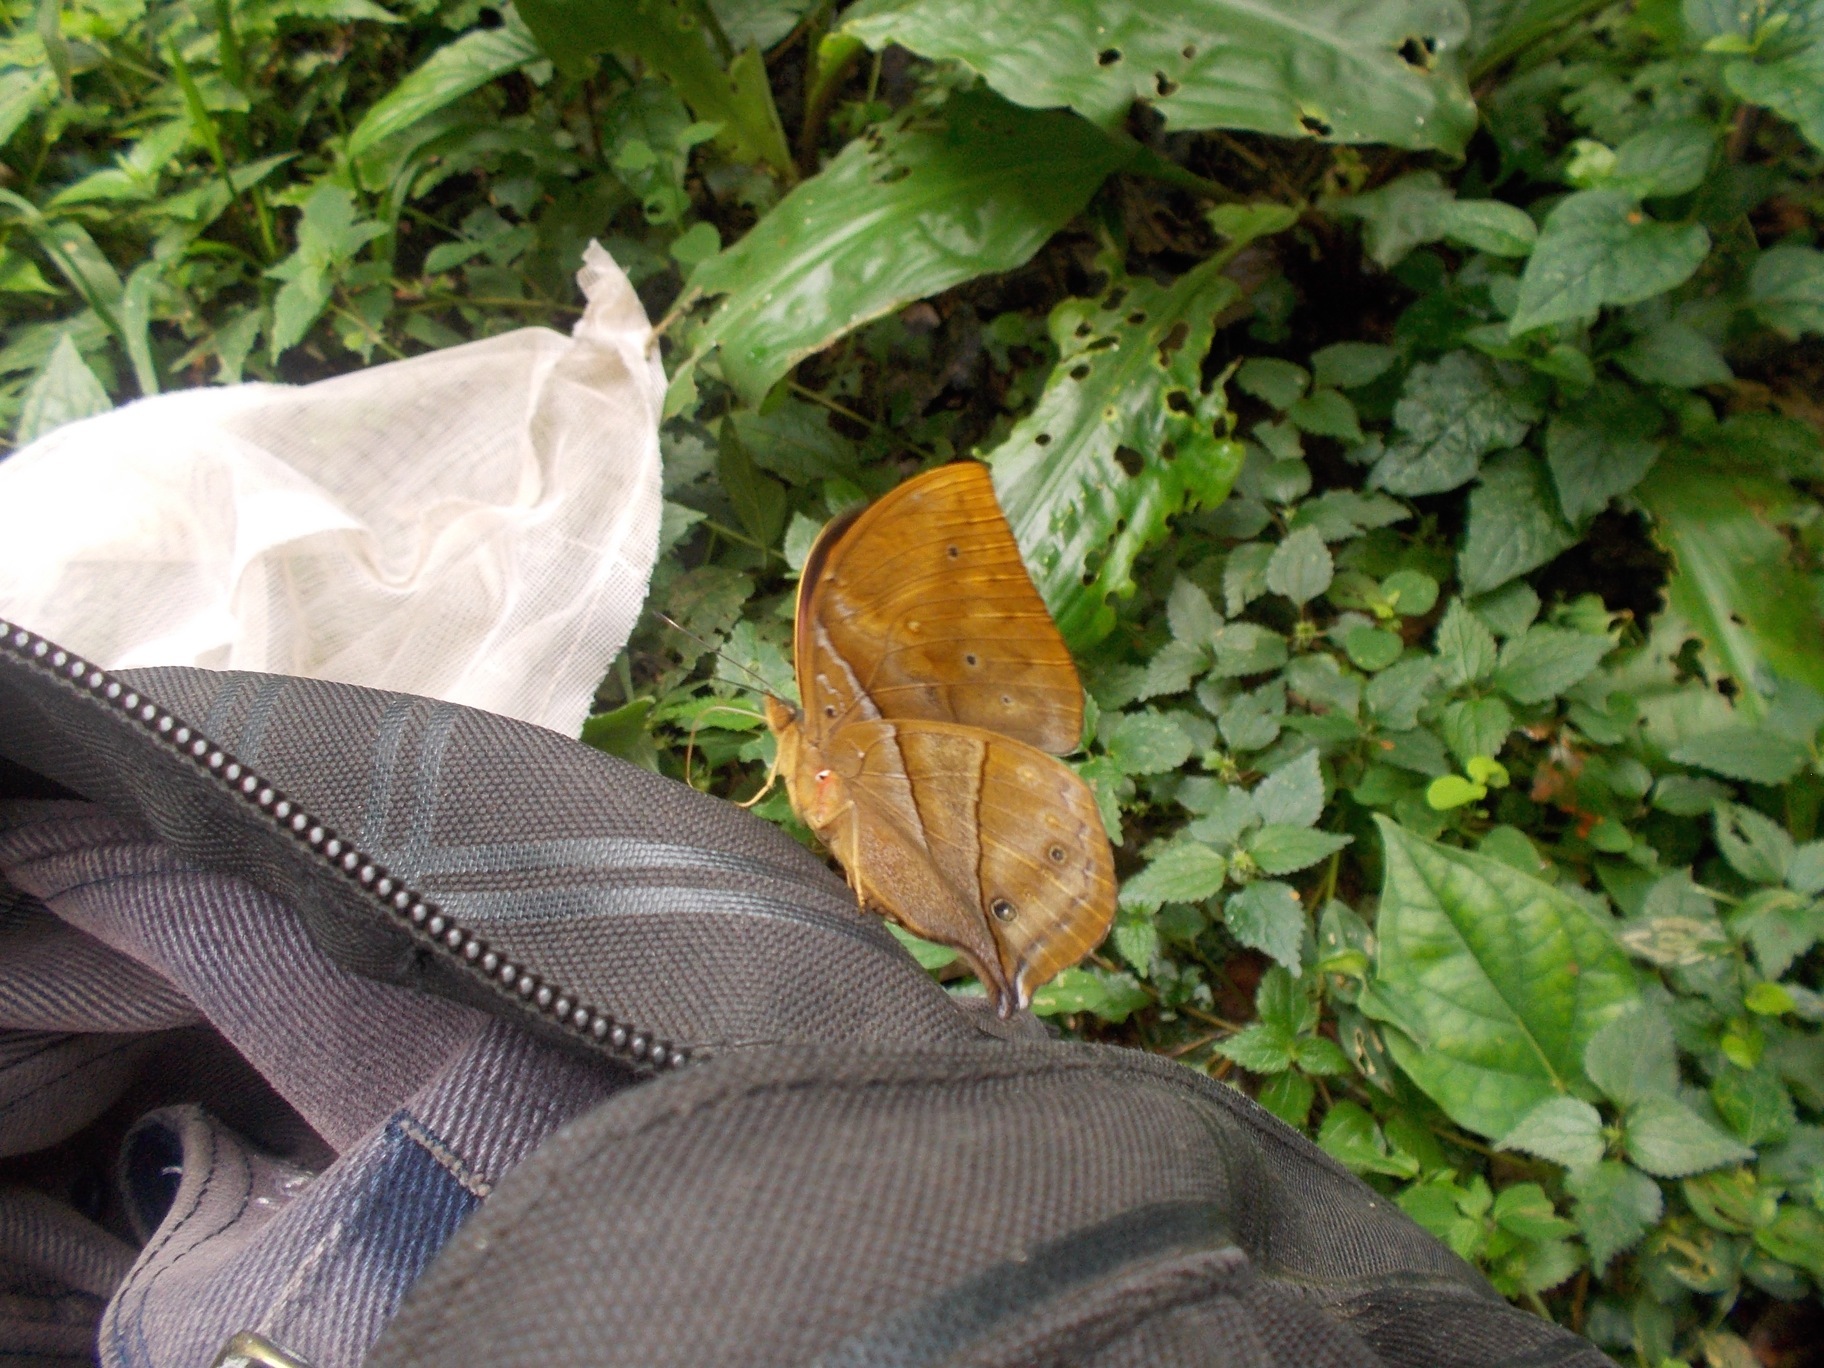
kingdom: Animalia
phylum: Arthropoda
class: Insecta
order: Lepidoptera
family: Nymphalidae
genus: Kallimoides
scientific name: Kallimoides rumia
